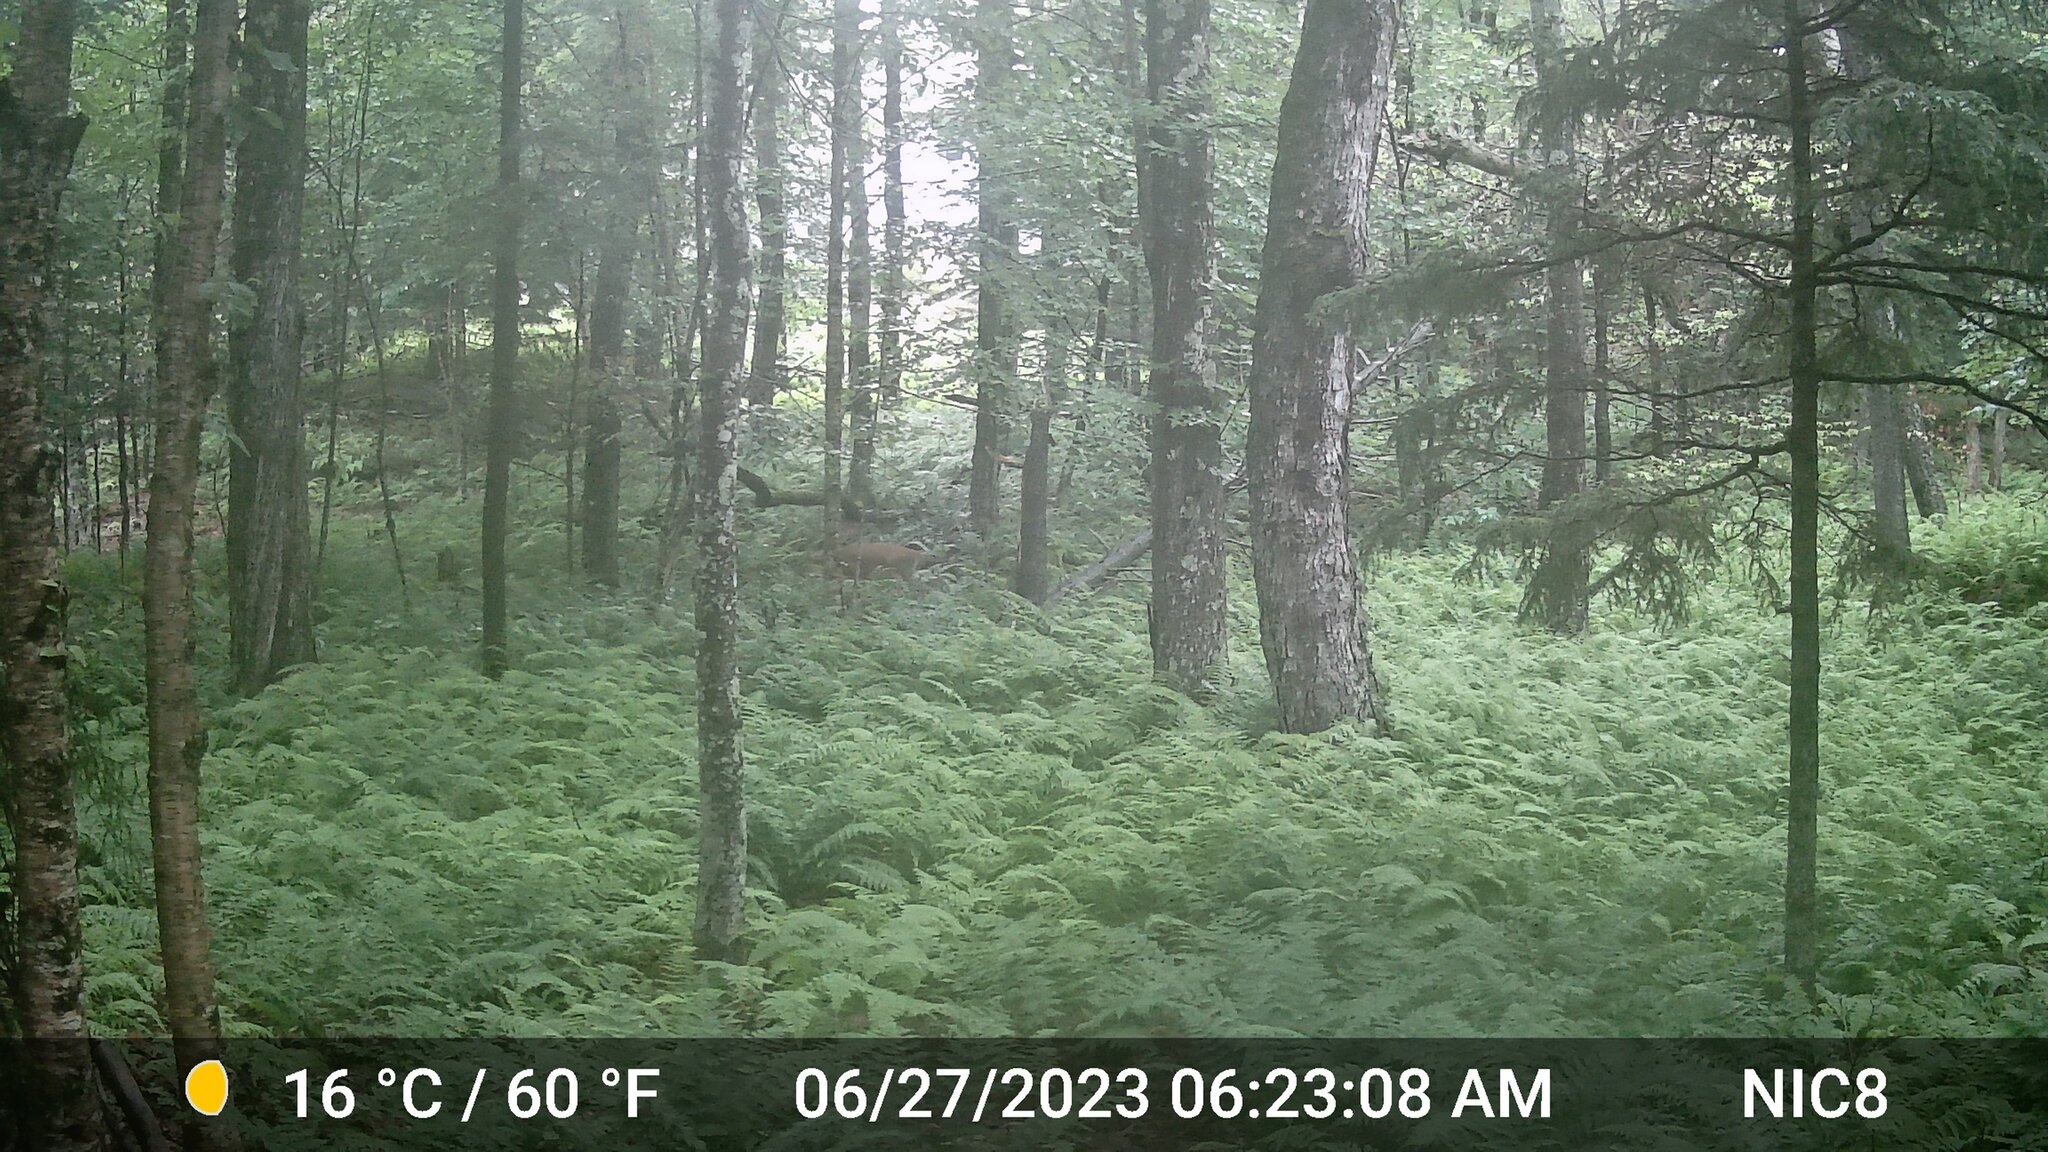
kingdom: Animalia
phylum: Chordata
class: Mammalia
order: Artiodactyla
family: Cervidae
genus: Odocoileus
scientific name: Odocoileus virginianus
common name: White-tailed deer
